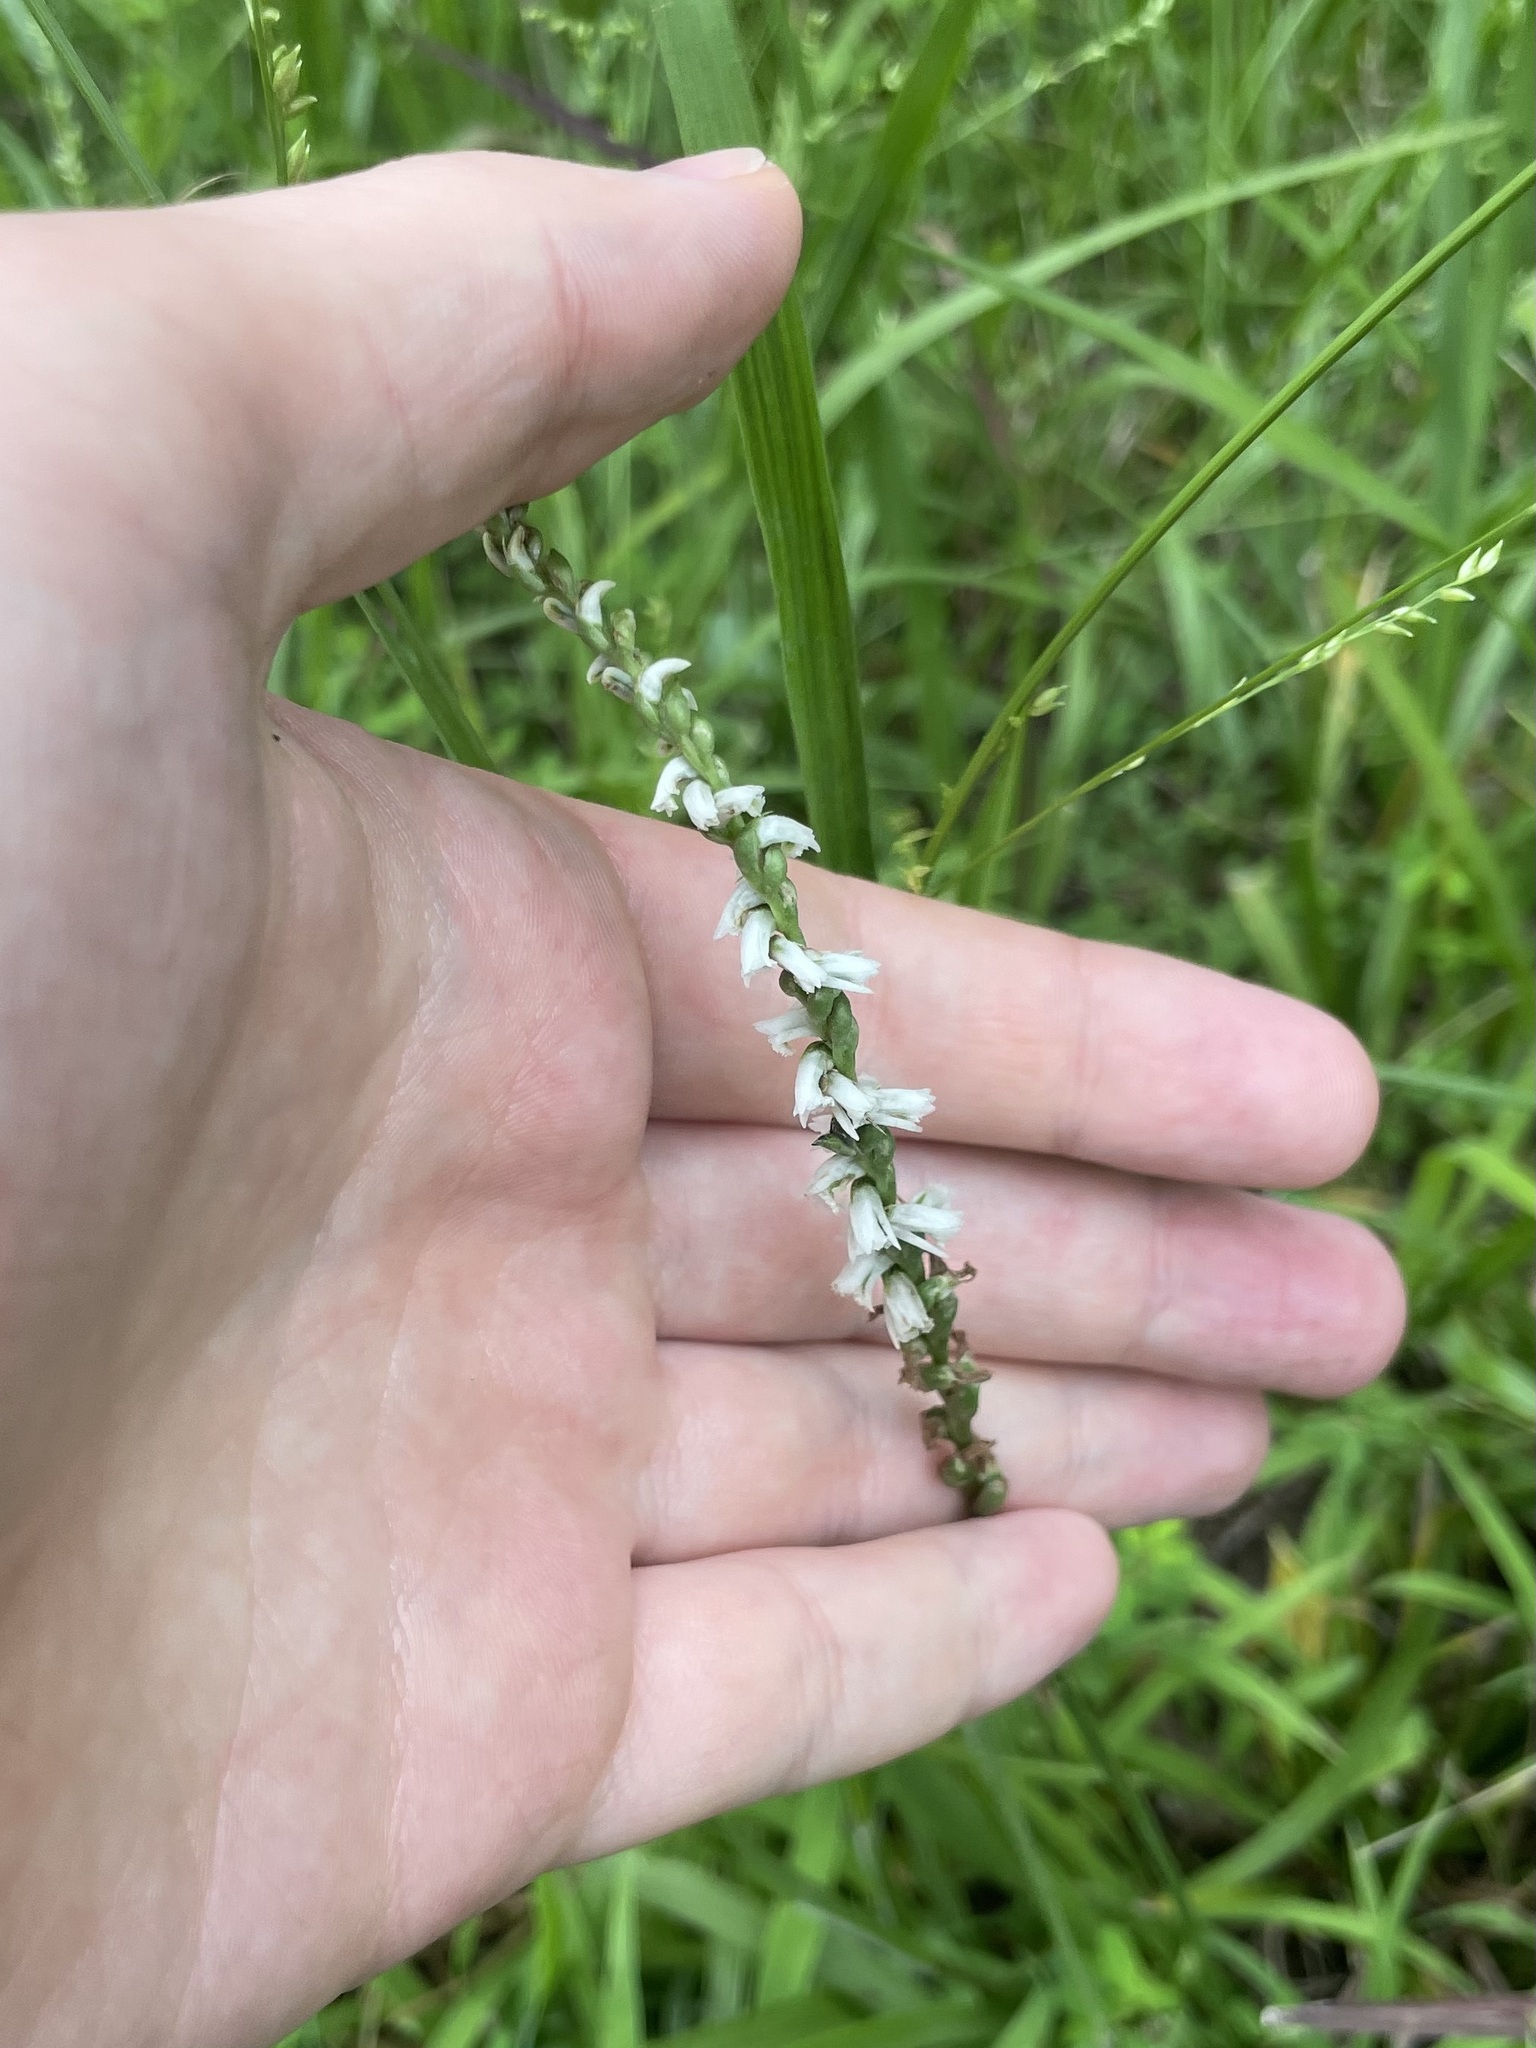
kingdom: Plantae
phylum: Tracheophyta
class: Liliopsida
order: Asparagales
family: Orchidaceae
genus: Spiranthes
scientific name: Spiranthes lacera
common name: Northern slender ladies'-tresses
